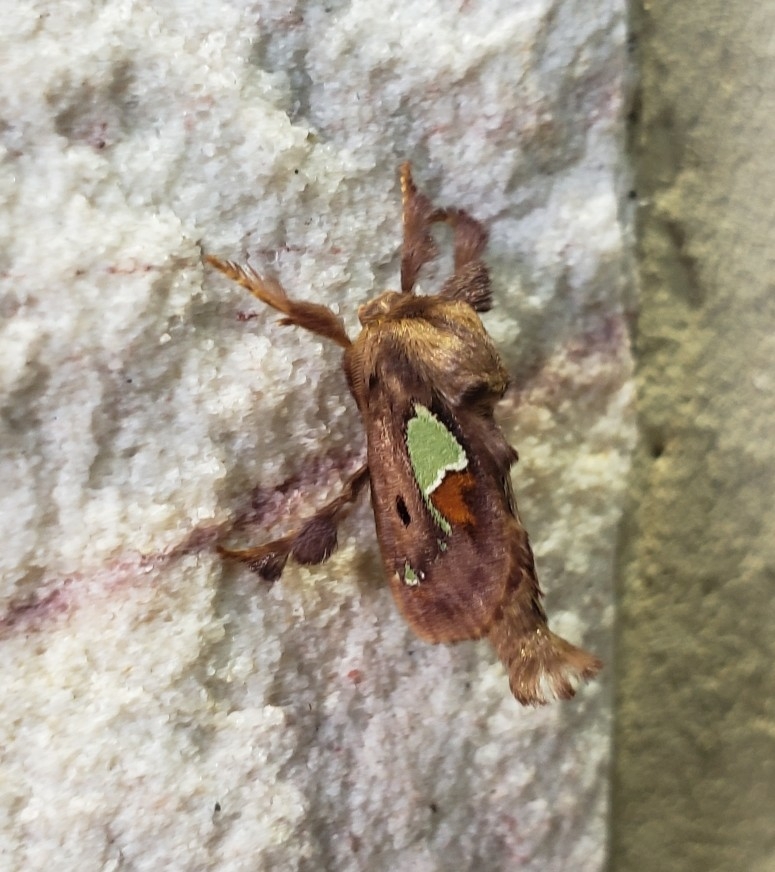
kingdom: Animalia
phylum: Arthropoda
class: Insecta
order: Lepidoptera
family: Limacodidae
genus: Euclea
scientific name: Euclea delphinii
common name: Spiny oak-slug moth
